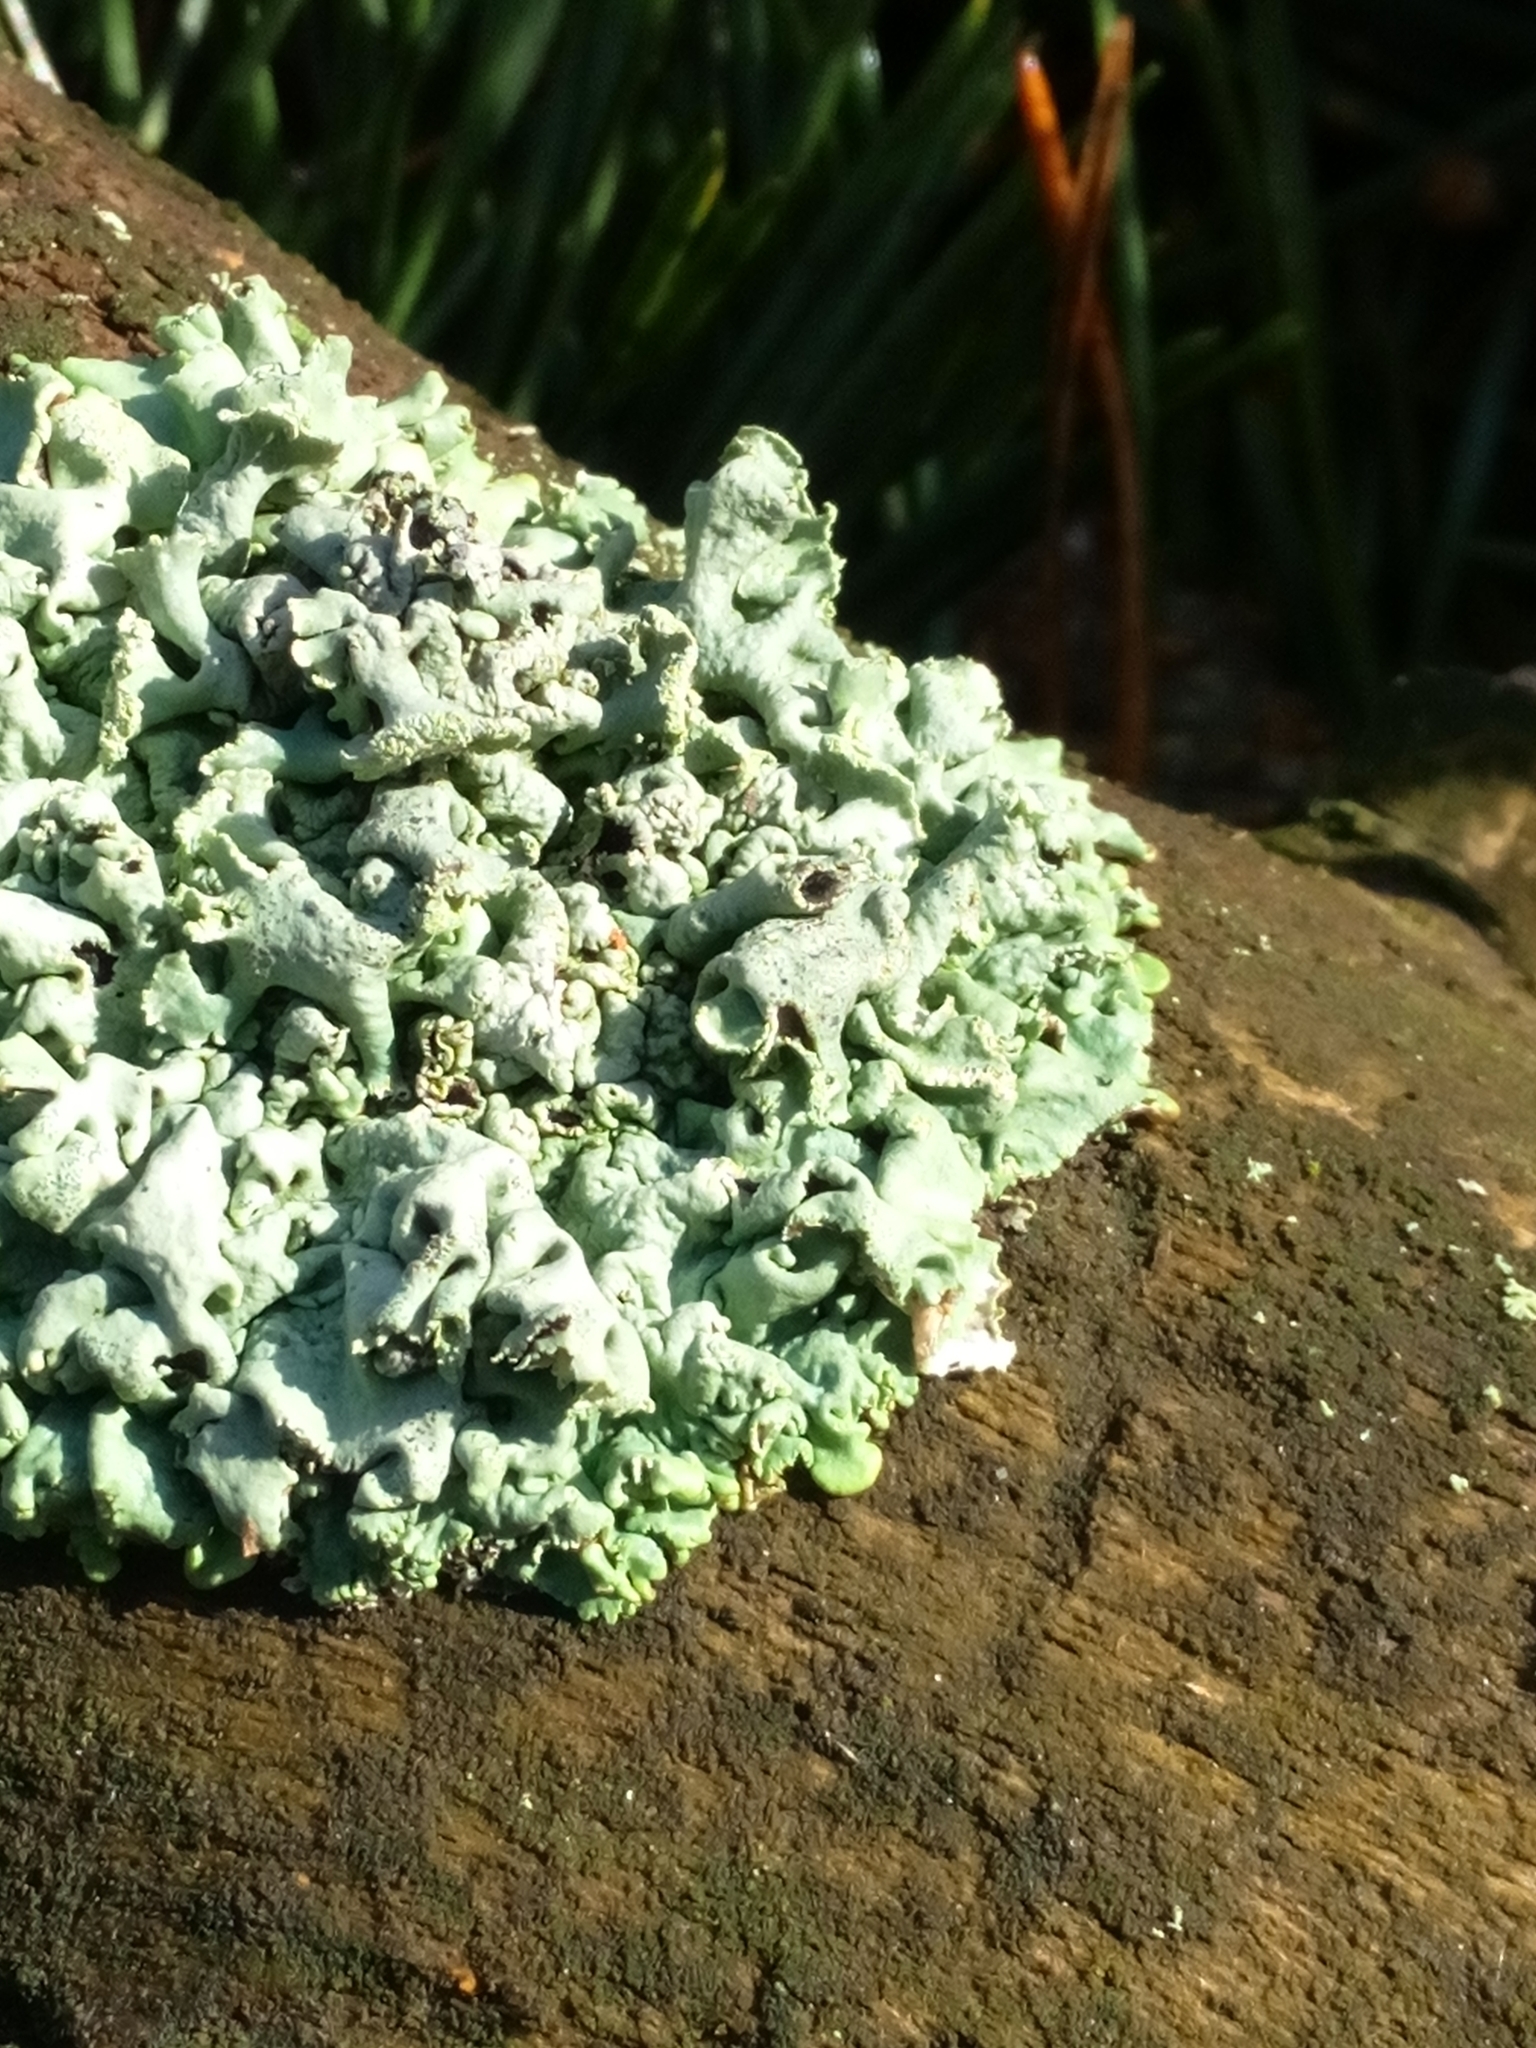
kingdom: Fungi
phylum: Ascomycota
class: Lecanoromycetes
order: Lecanorales
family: Parmeliaceae
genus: Hypogymnia
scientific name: Hypogymnia physodes
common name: Dark crottle
